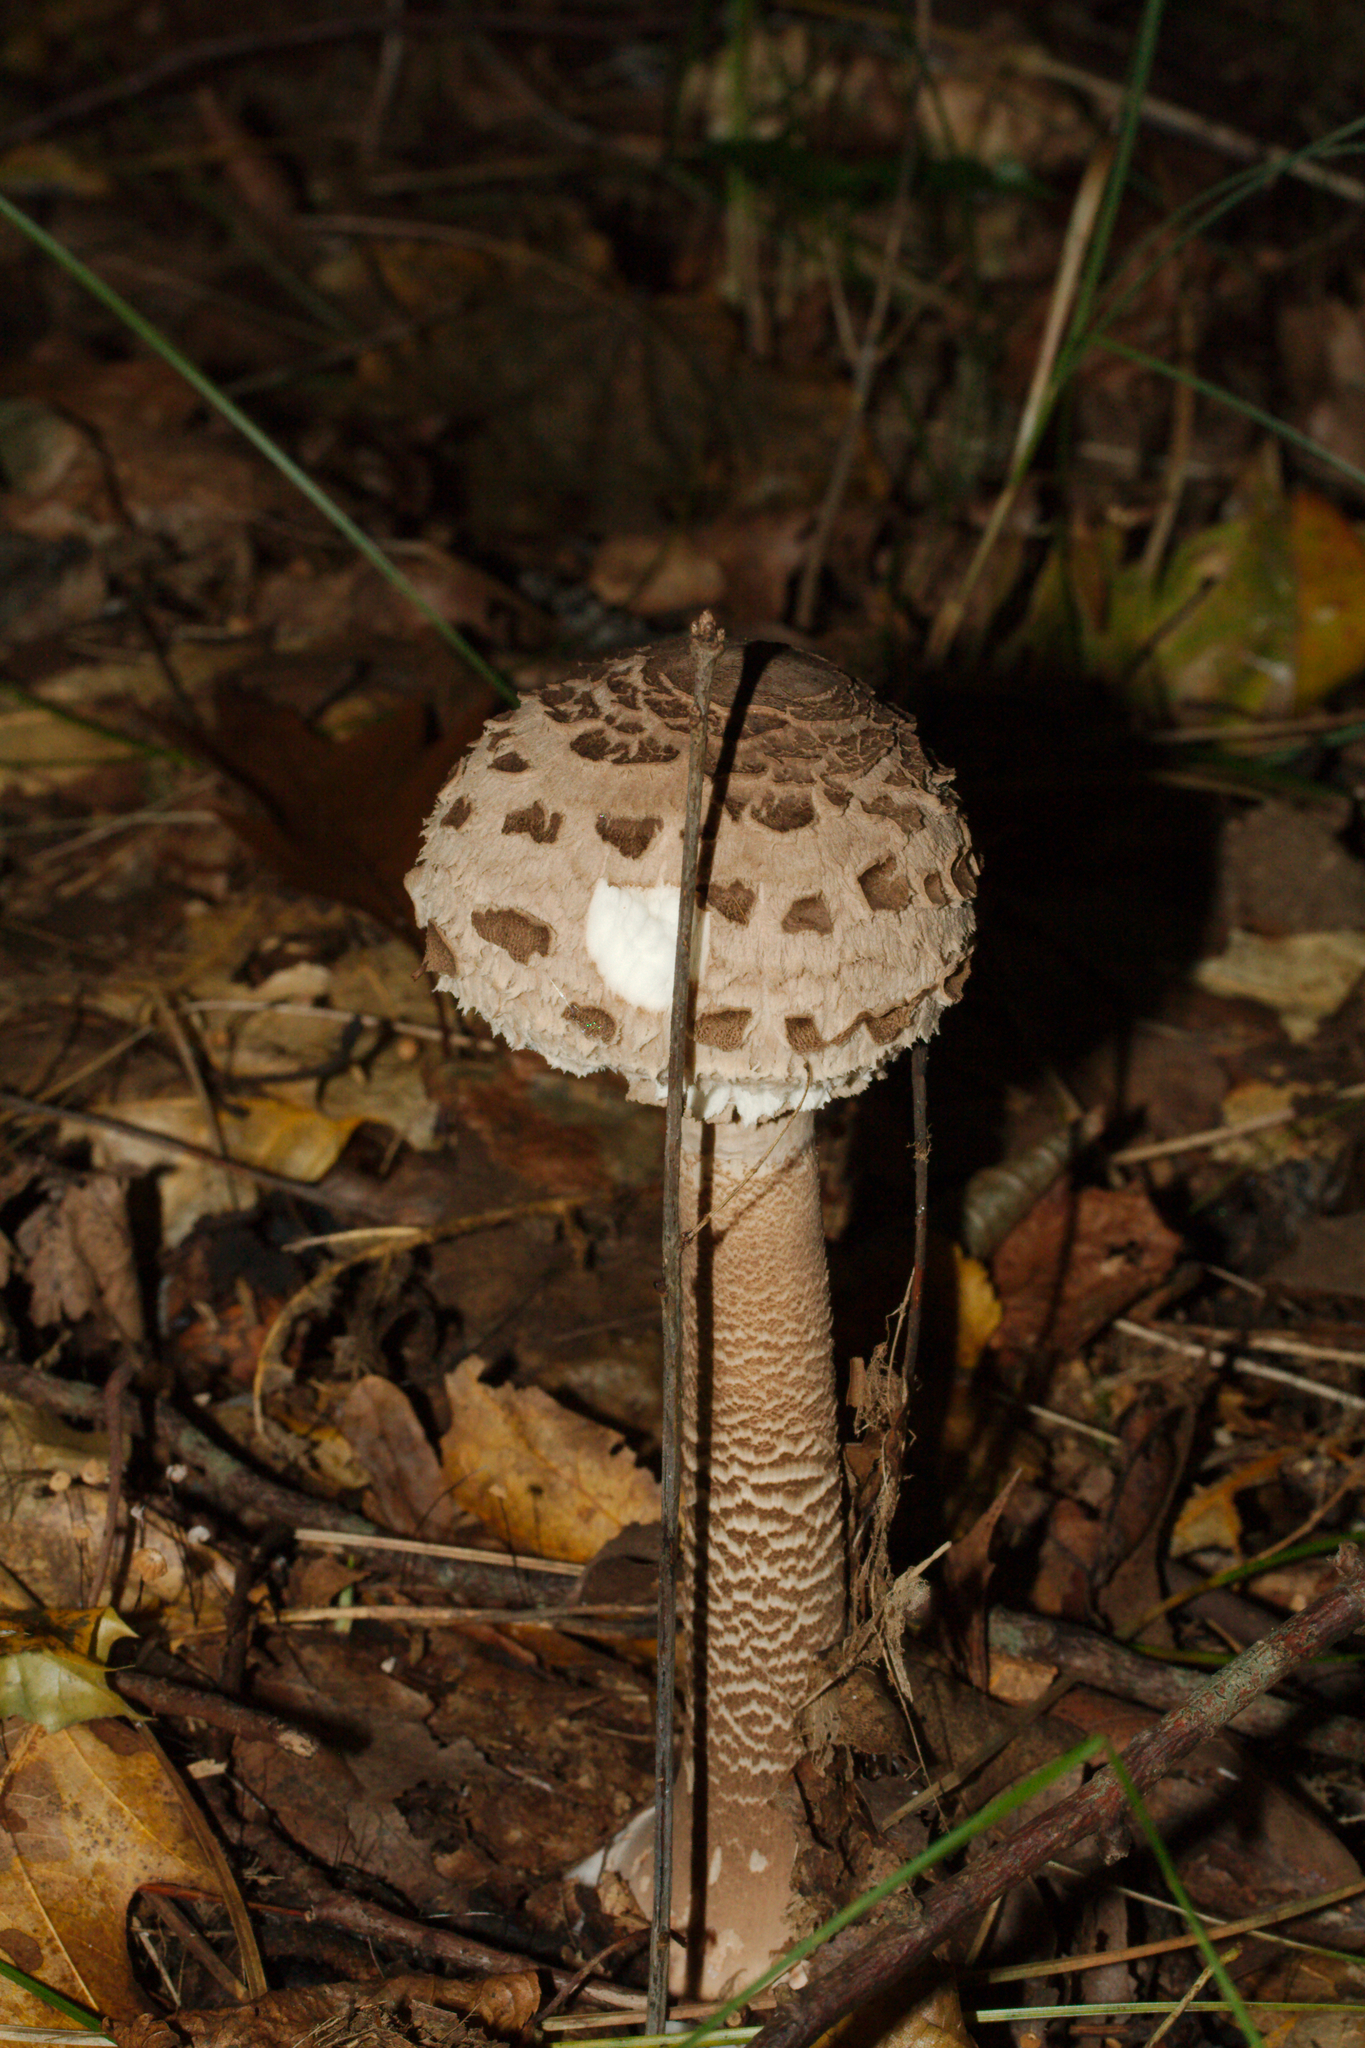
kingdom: Fungi
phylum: Basidiomycota
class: Agaricomycetes
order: Agaricales
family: Agaricaceae
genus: Macrolepiota
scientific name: Macrolepiota procera
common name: Parasol
